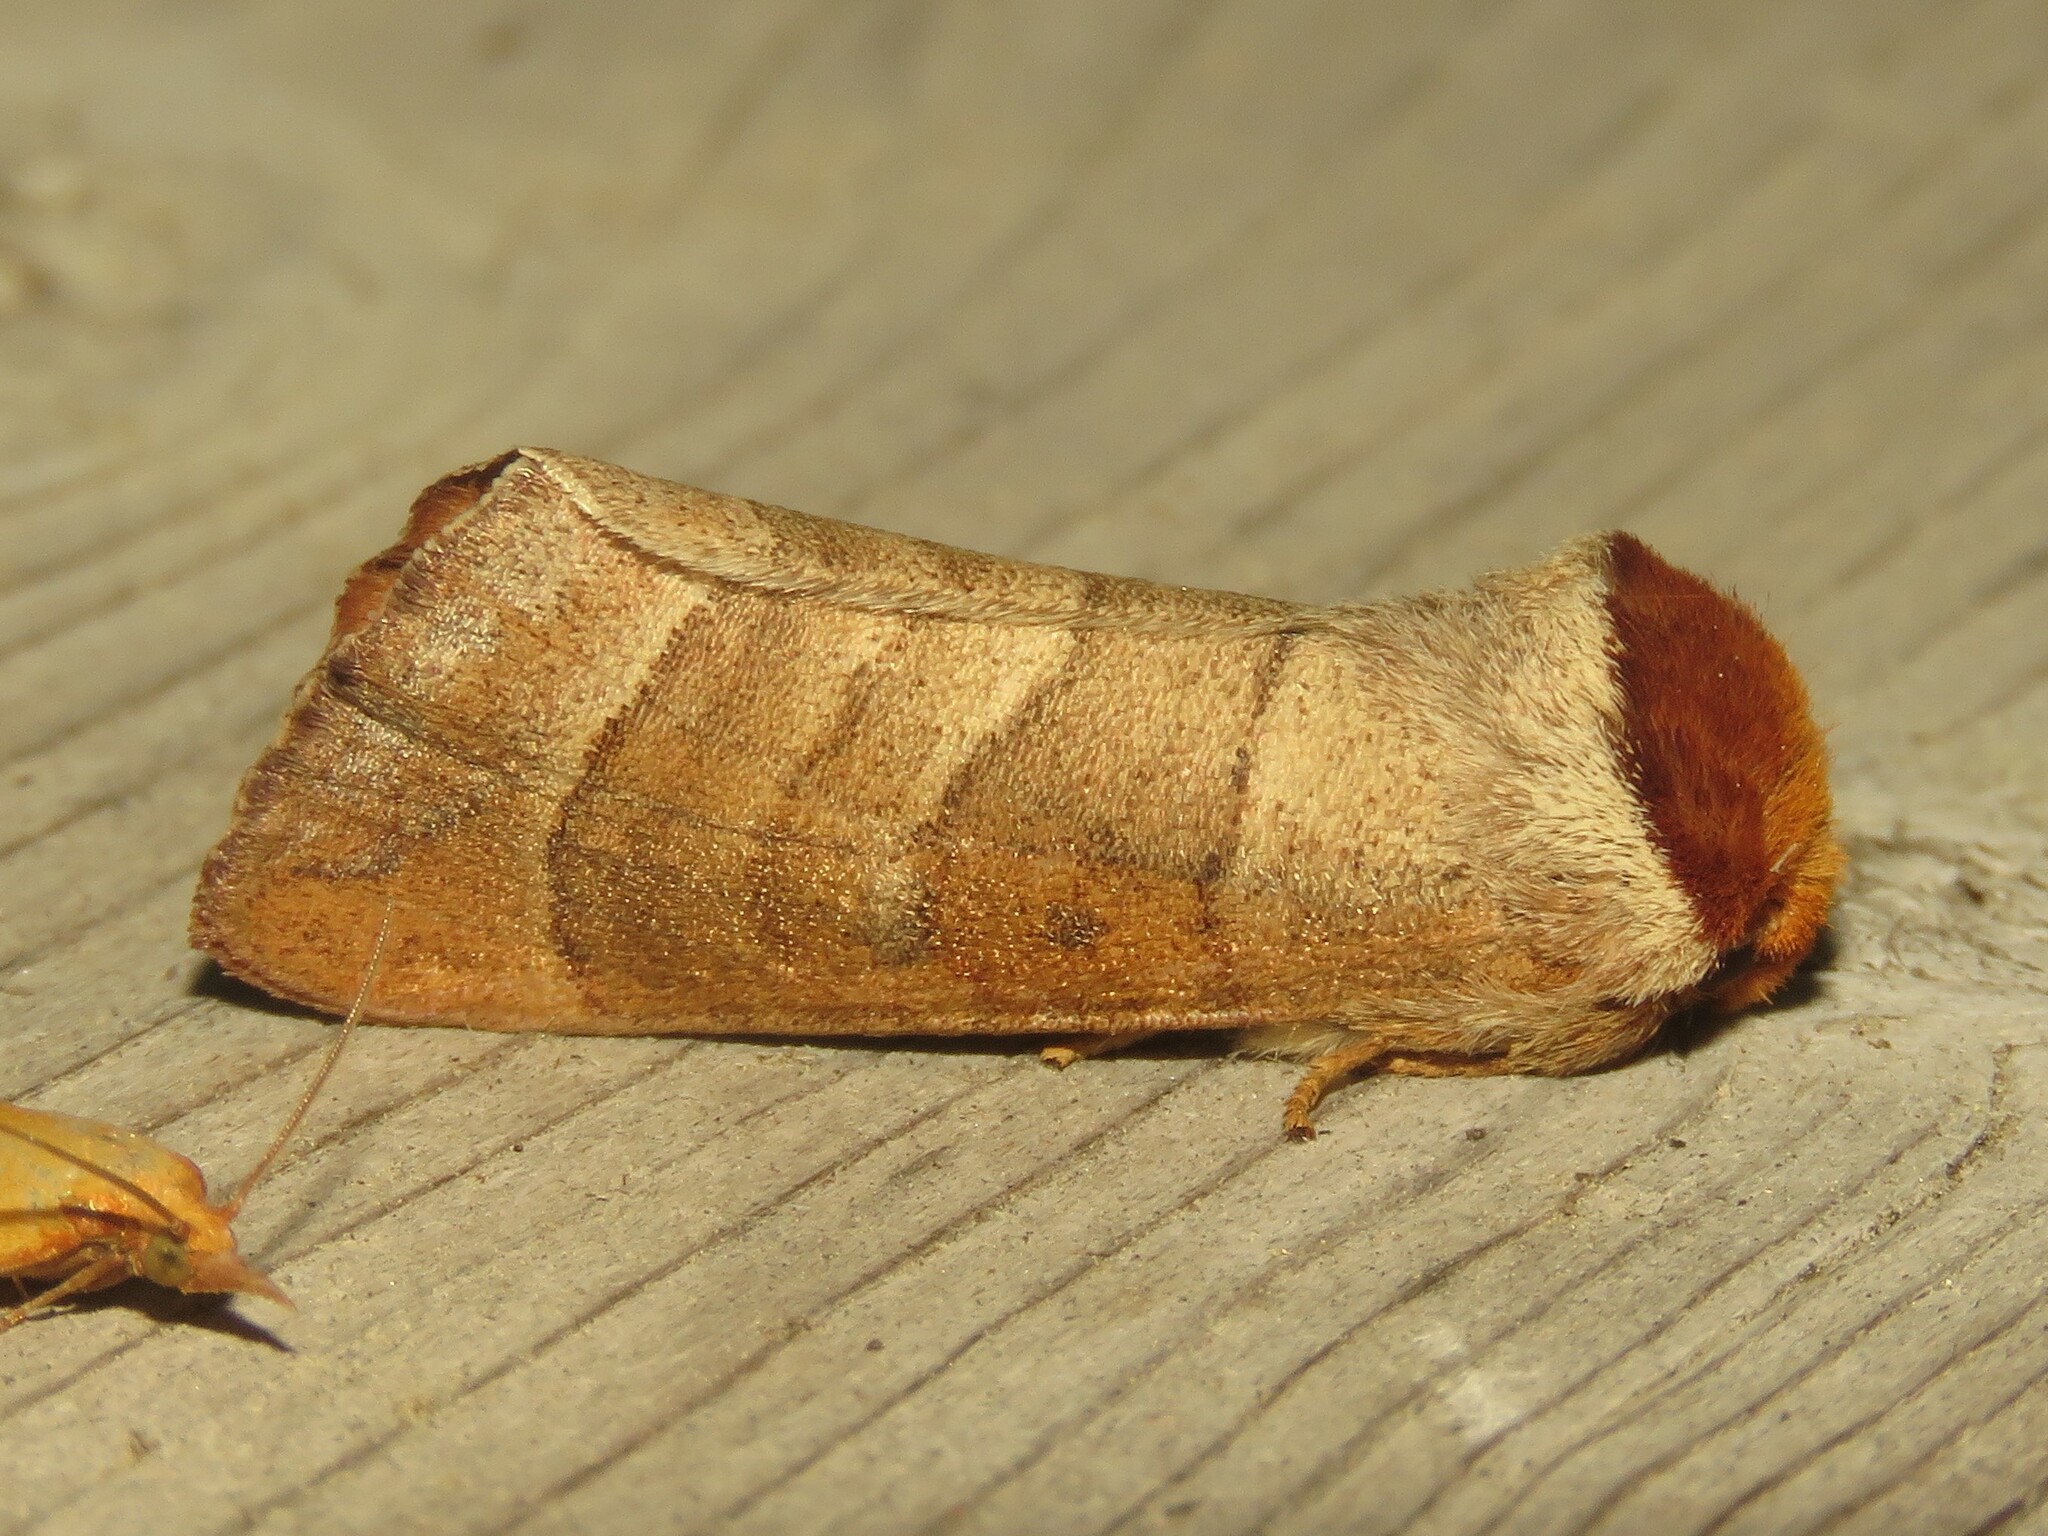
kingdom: Animalia
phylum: Arthropoda
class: Insecta
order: Lepidoptera
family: Notodontidae
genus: Datana
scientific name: Datana integerrima
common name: Walnut caterpillar
